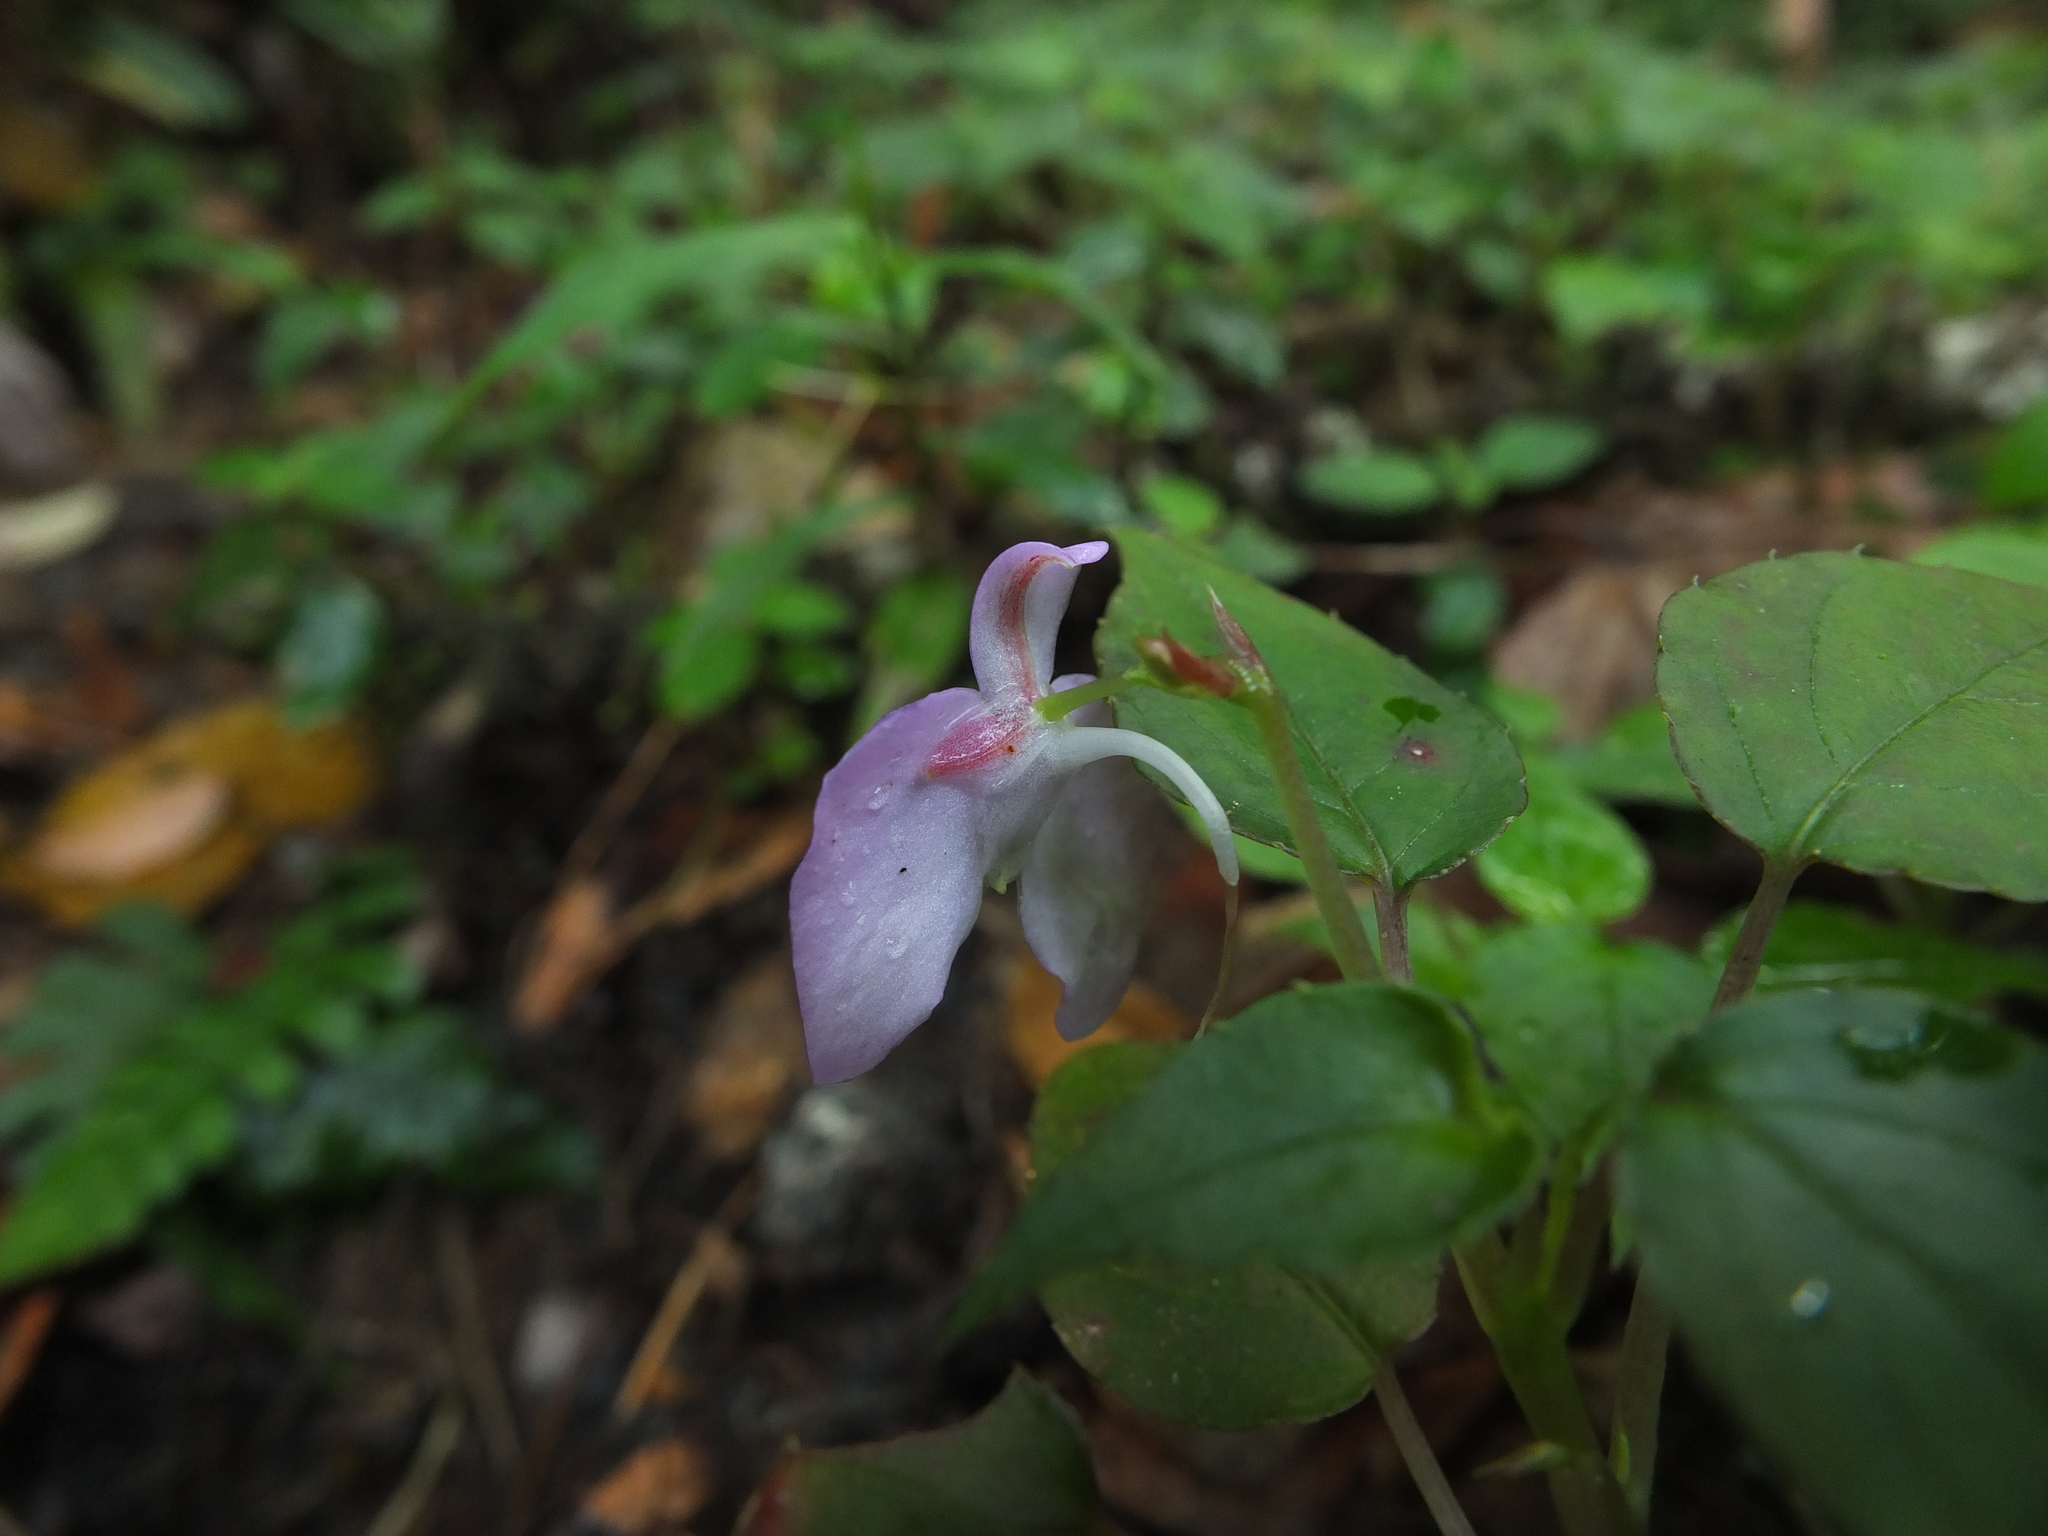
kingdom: Plantae
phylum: Tracheophyta
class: Magnoliopsida
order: Ericales
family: Balsaminaceae
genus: Impatiens
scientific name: Impatiens cordata
